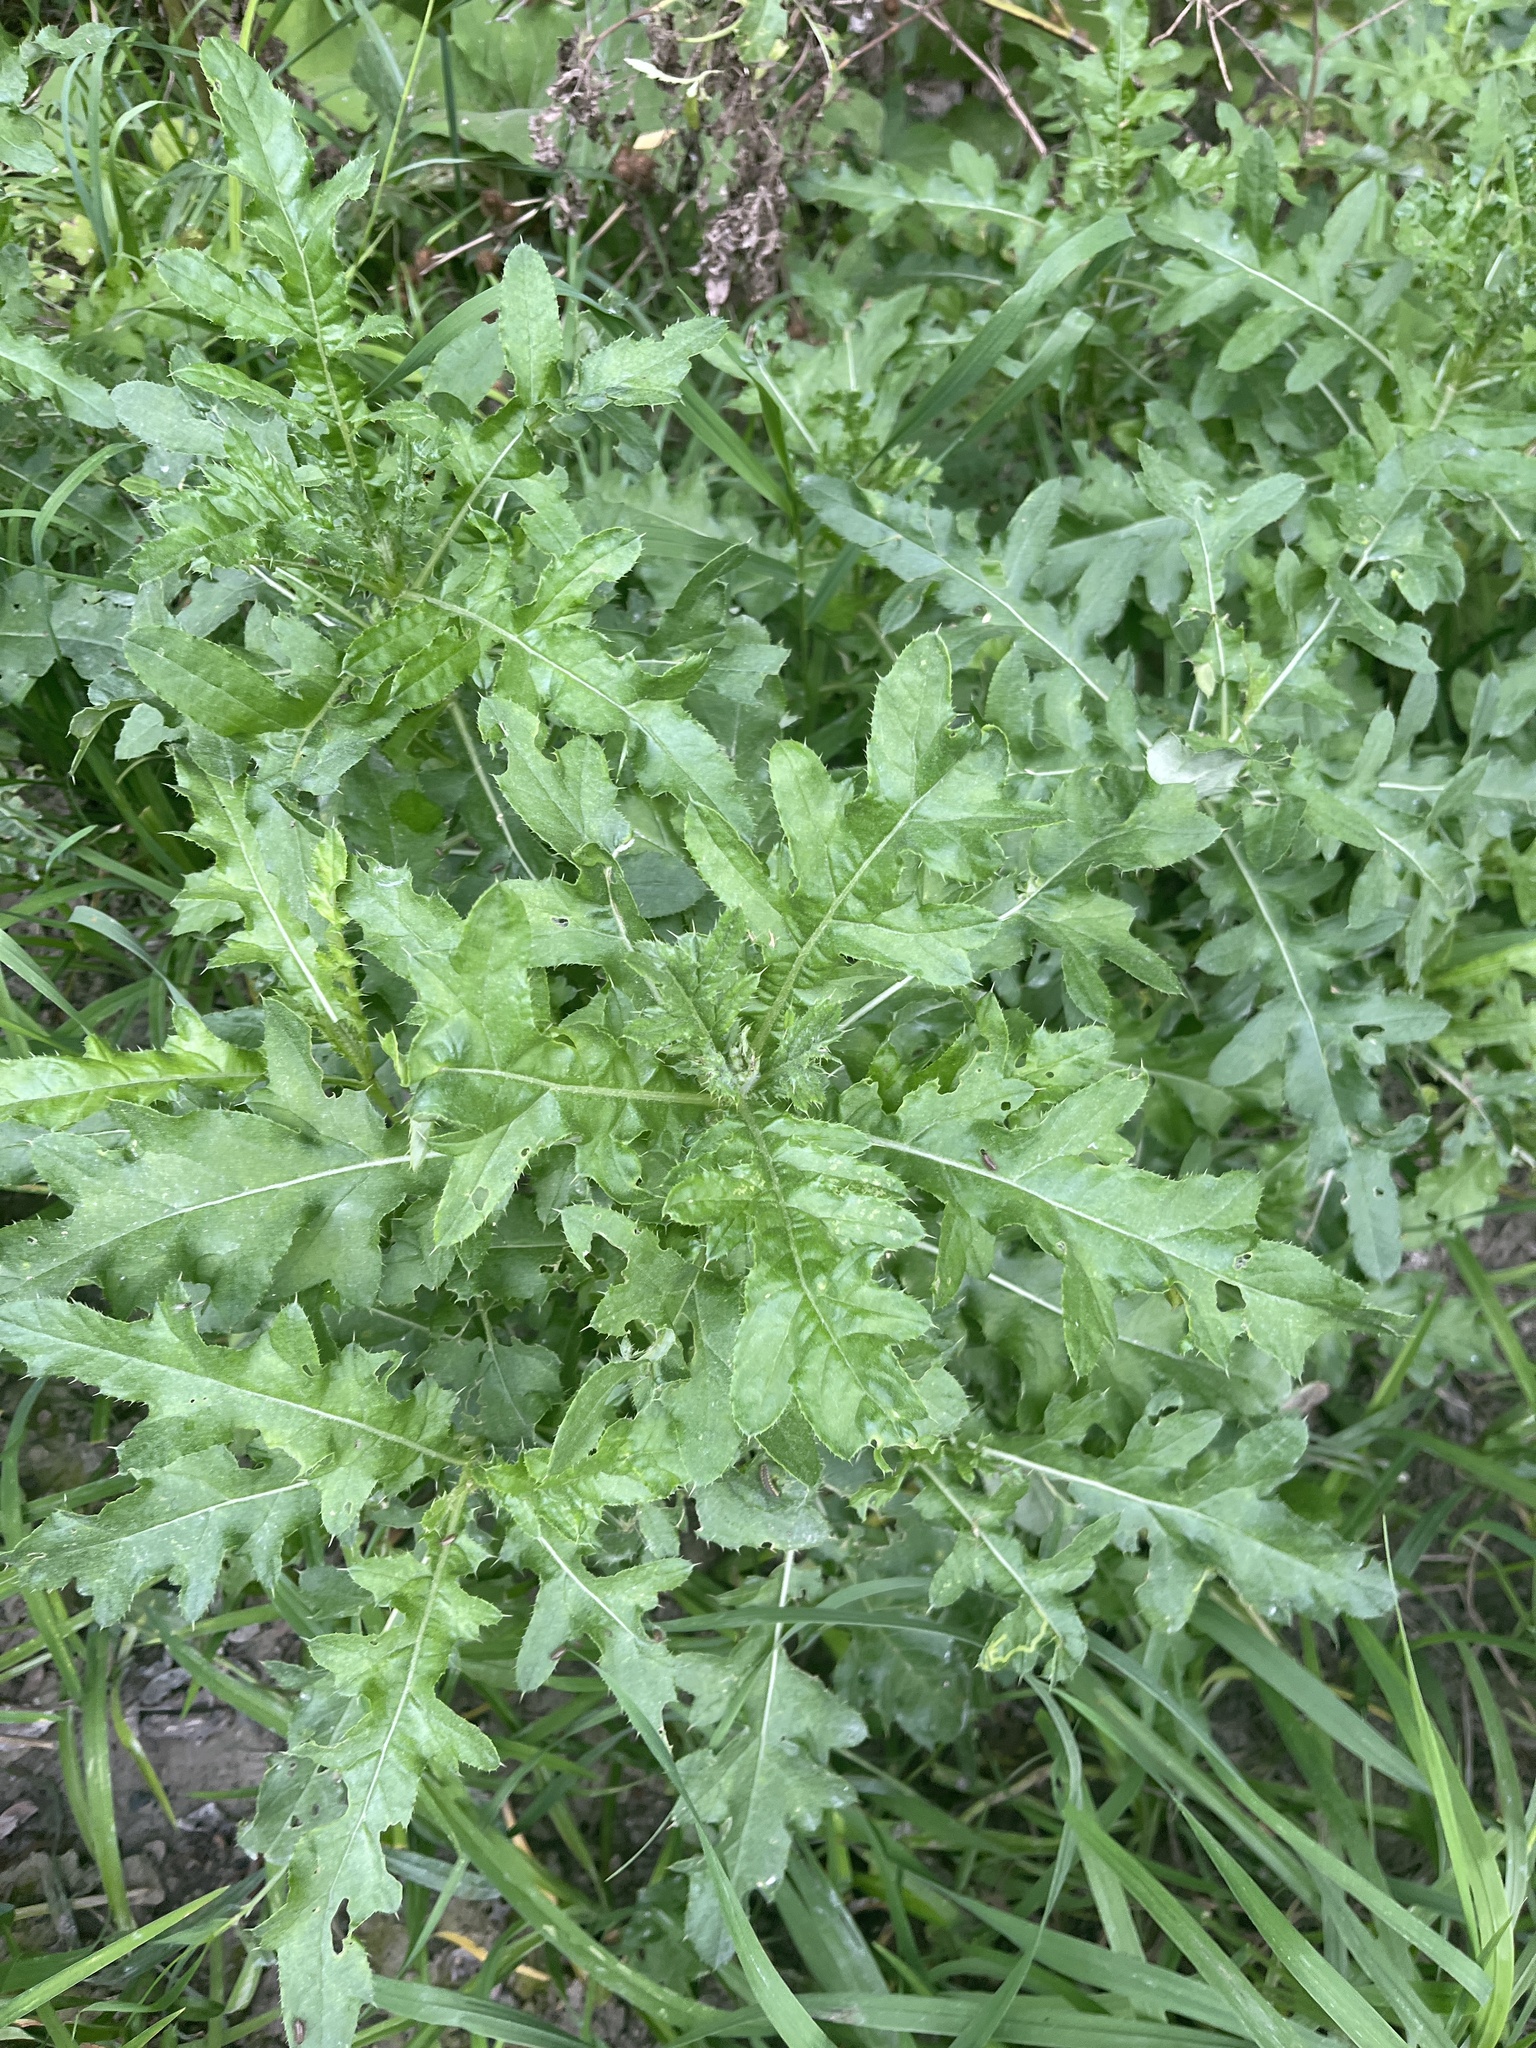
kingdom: Plantae
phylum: Tracheophyta
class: Magnoliopsida
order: Asterales
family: Asteraceae
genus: Cirsium
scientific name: Cirsium arvense
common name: Creeping thistle
